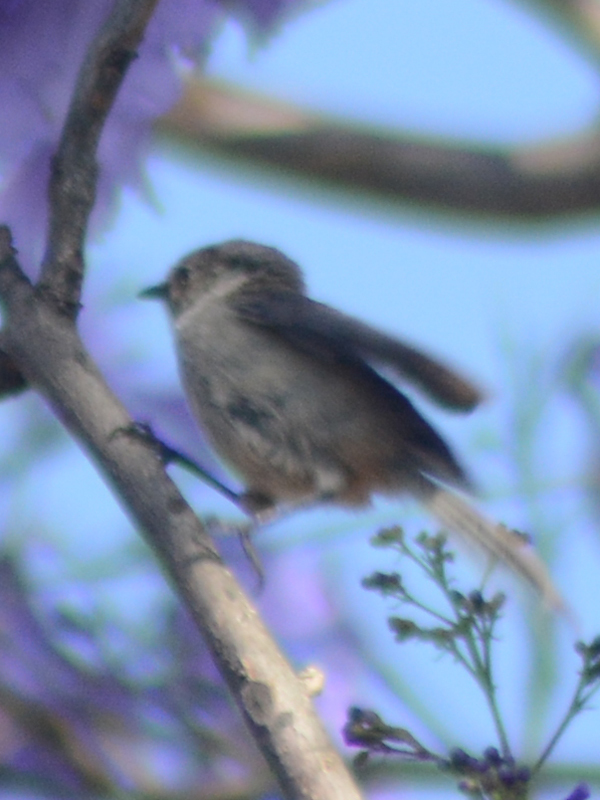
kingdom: Animalia
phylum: Chordata
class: Aves
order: Passeriformes
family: Aegithalidae
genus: Psaltriparus
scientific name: Psaltriparus minimus
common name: American bushtit
